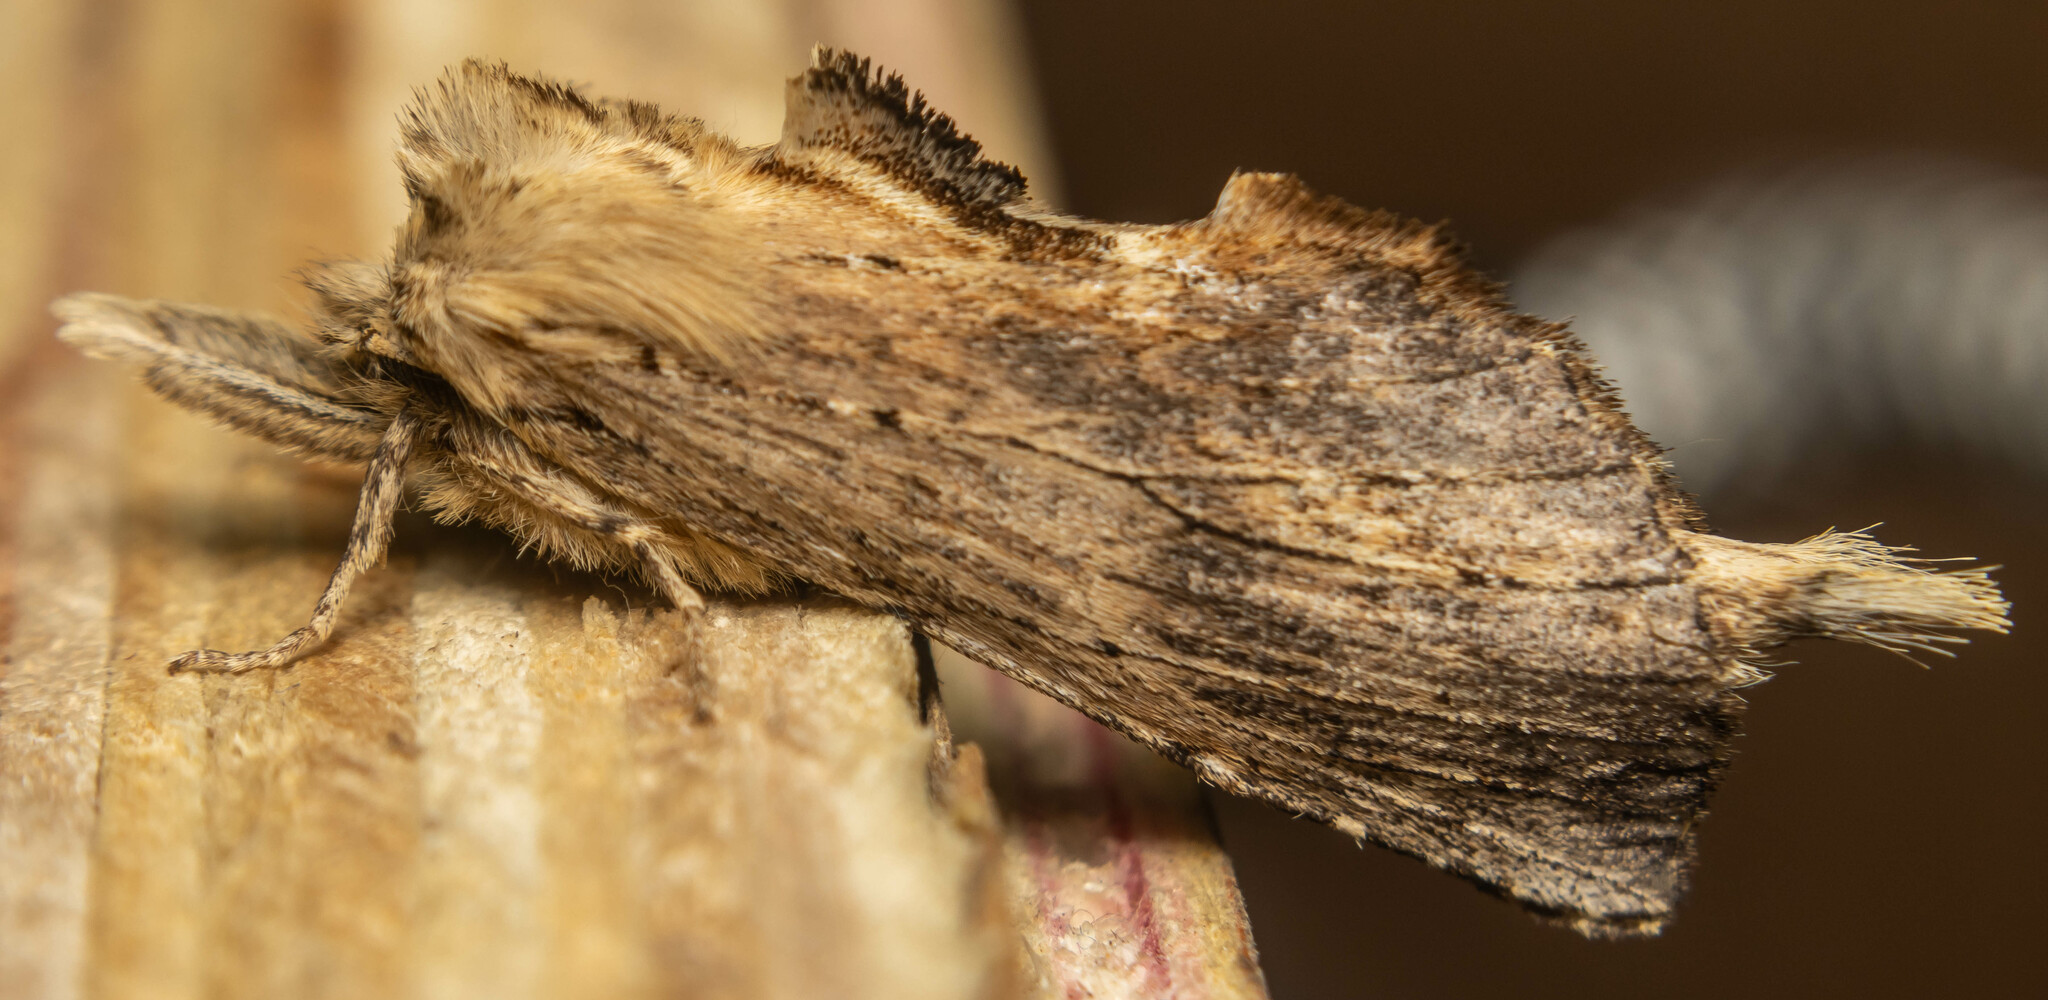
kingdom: Animalia
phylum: Arthropoda
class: Insecta
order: Lepidoptera
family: Notodontidae
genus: Pterostoma
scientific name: Pterostoma palpina
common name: Pale prominent
